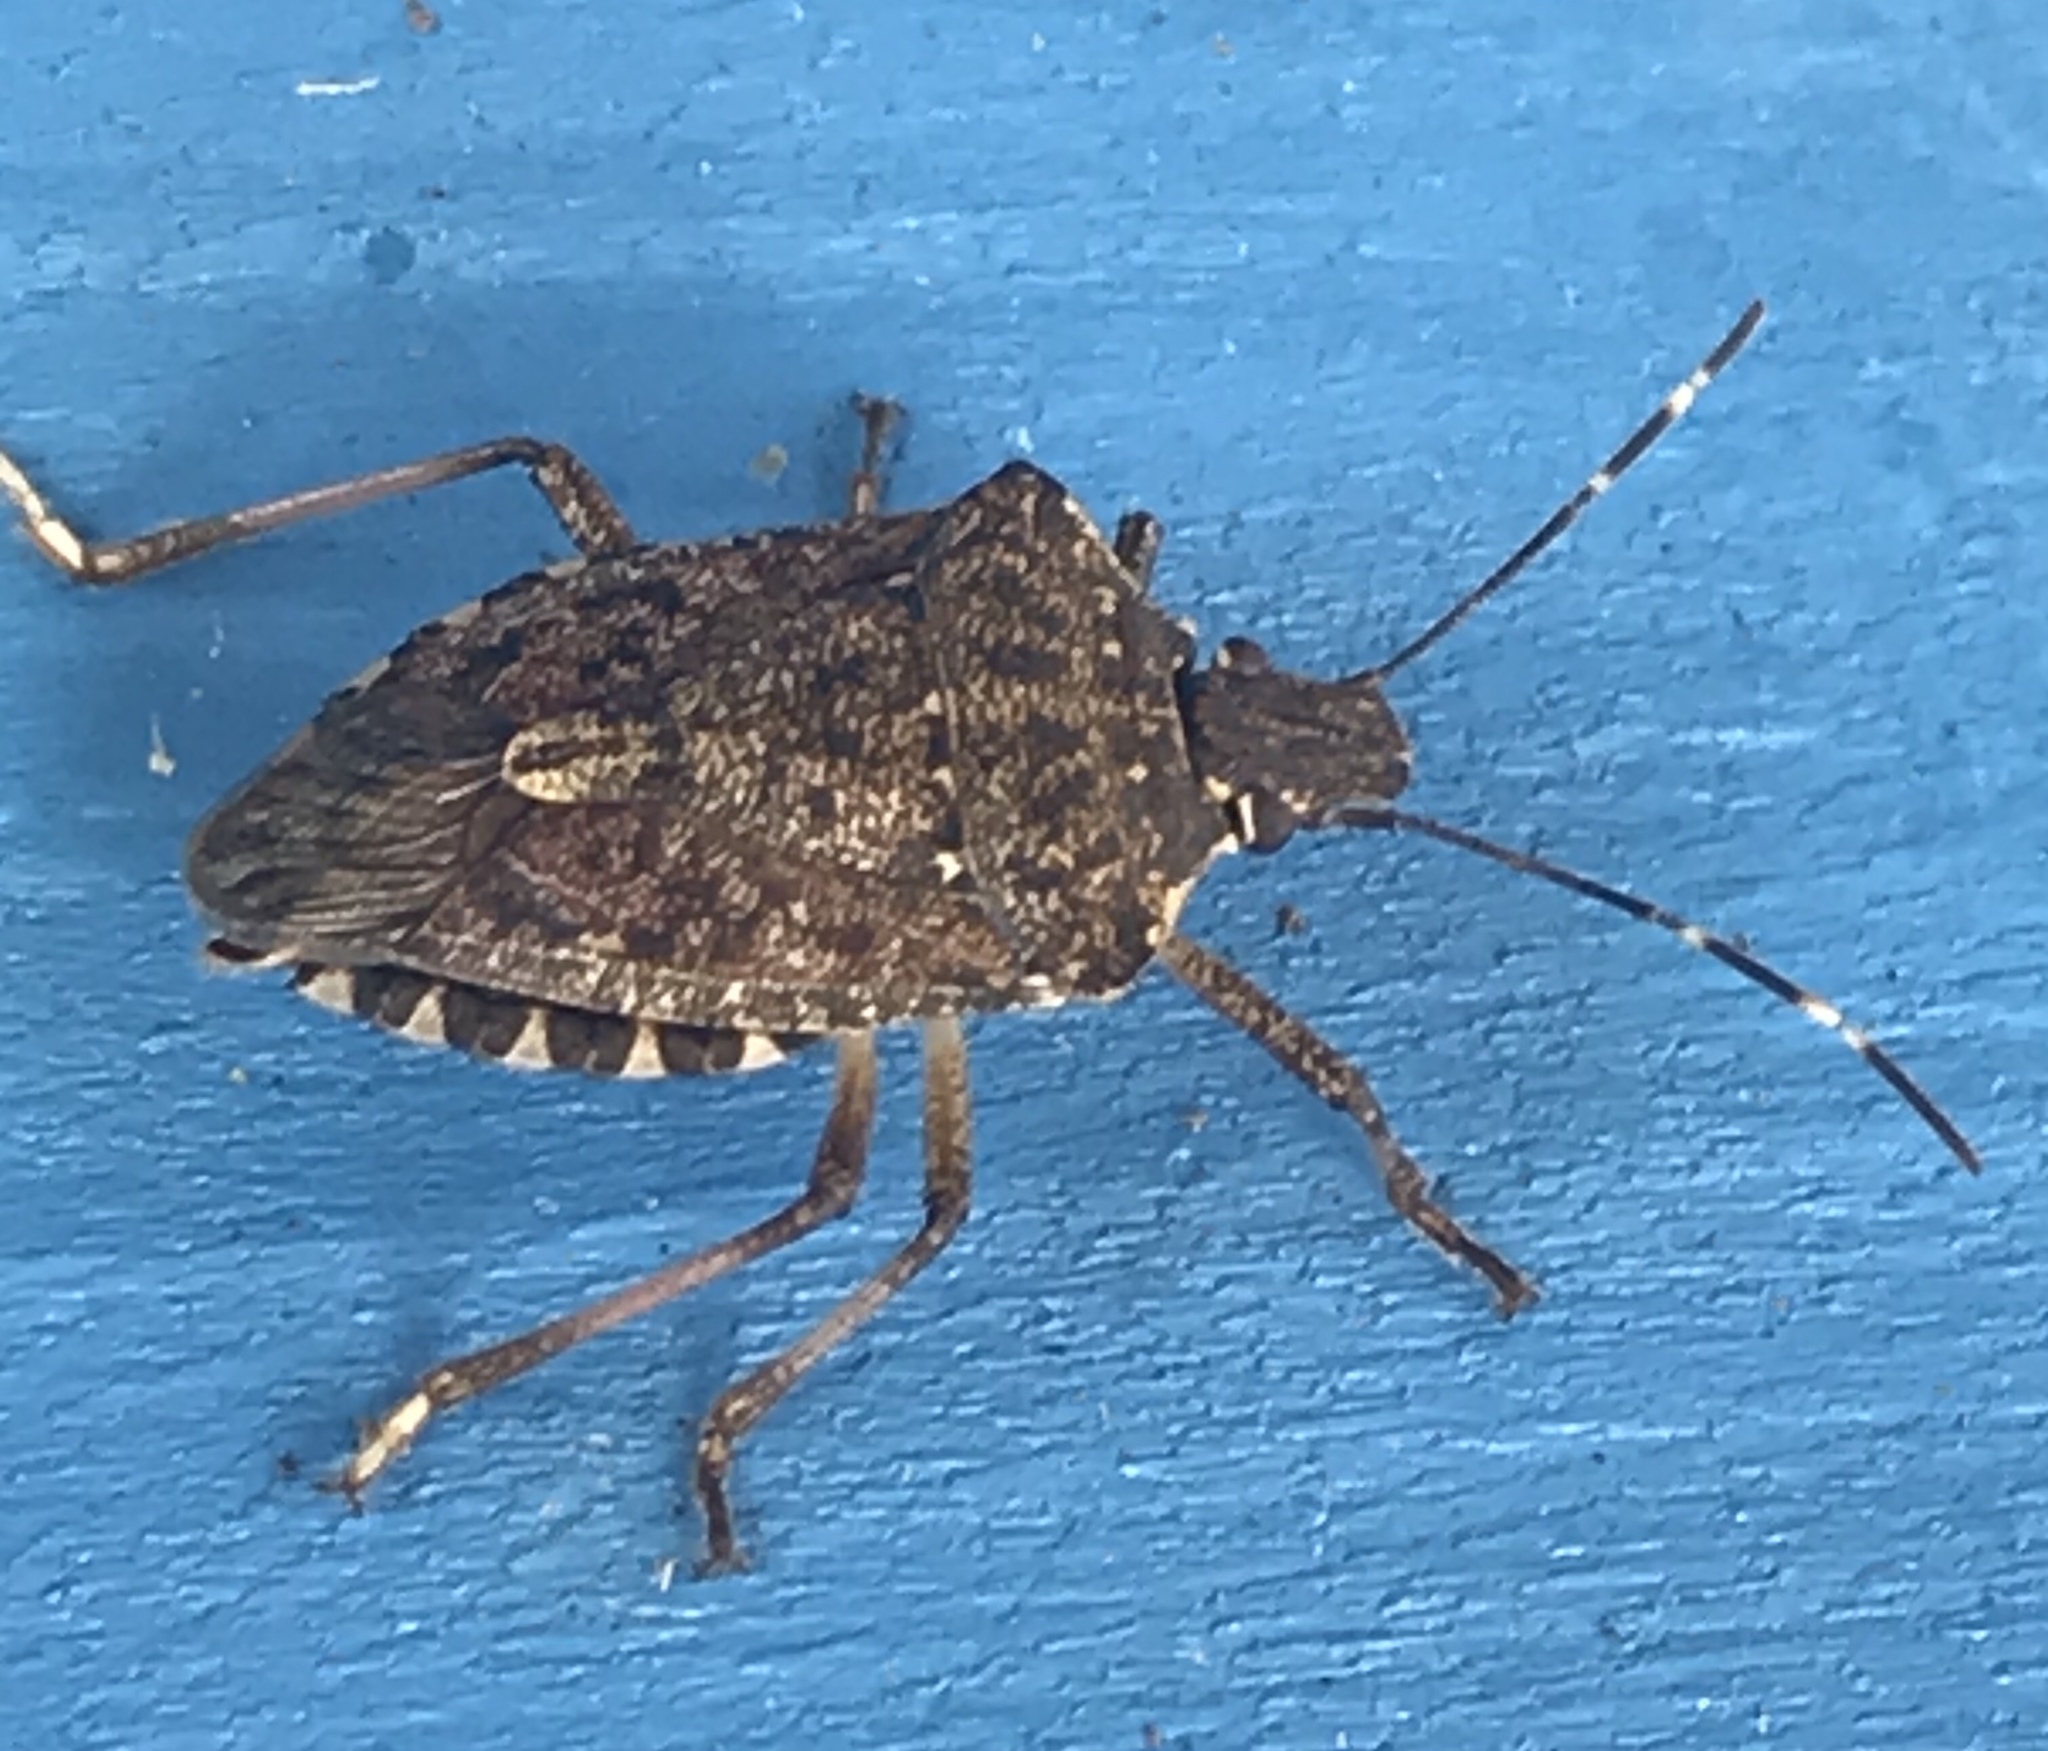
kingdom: Animalia
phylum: Arthropoda
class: Insecta
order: Hemiptera
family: Pentatomidae
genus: Halyomorpha
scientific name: Halyomorpha halys
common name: Brown marmorated stink bug
